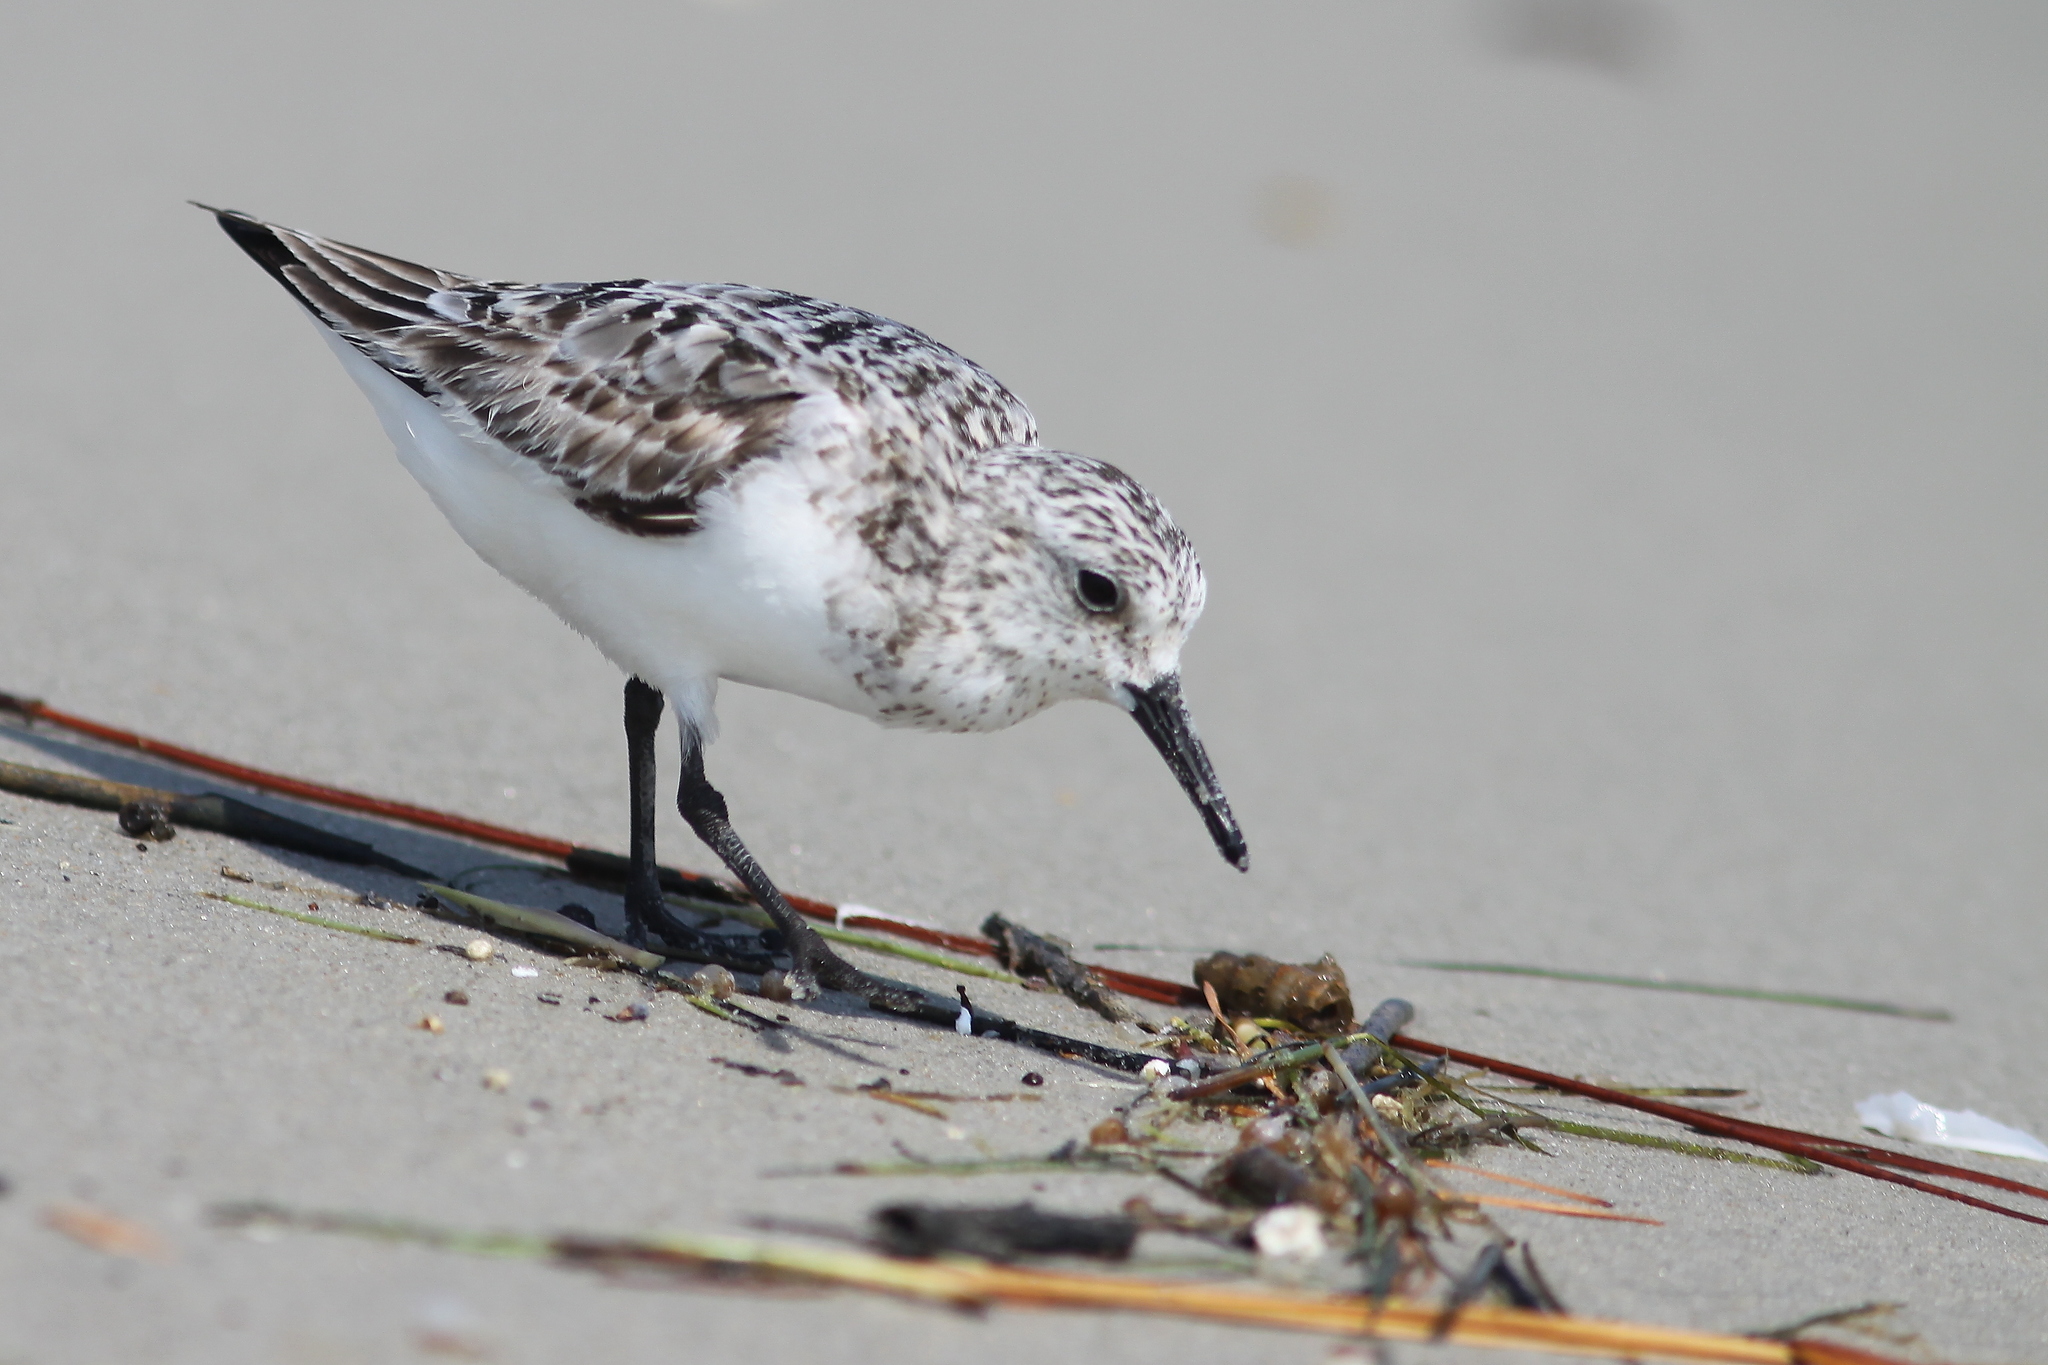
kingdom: Animalia
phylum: Chordata
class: Aves
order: Charadriiformes
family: Scolopacidae
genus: Calidris
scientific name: Calidris alba
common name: Sanderling
